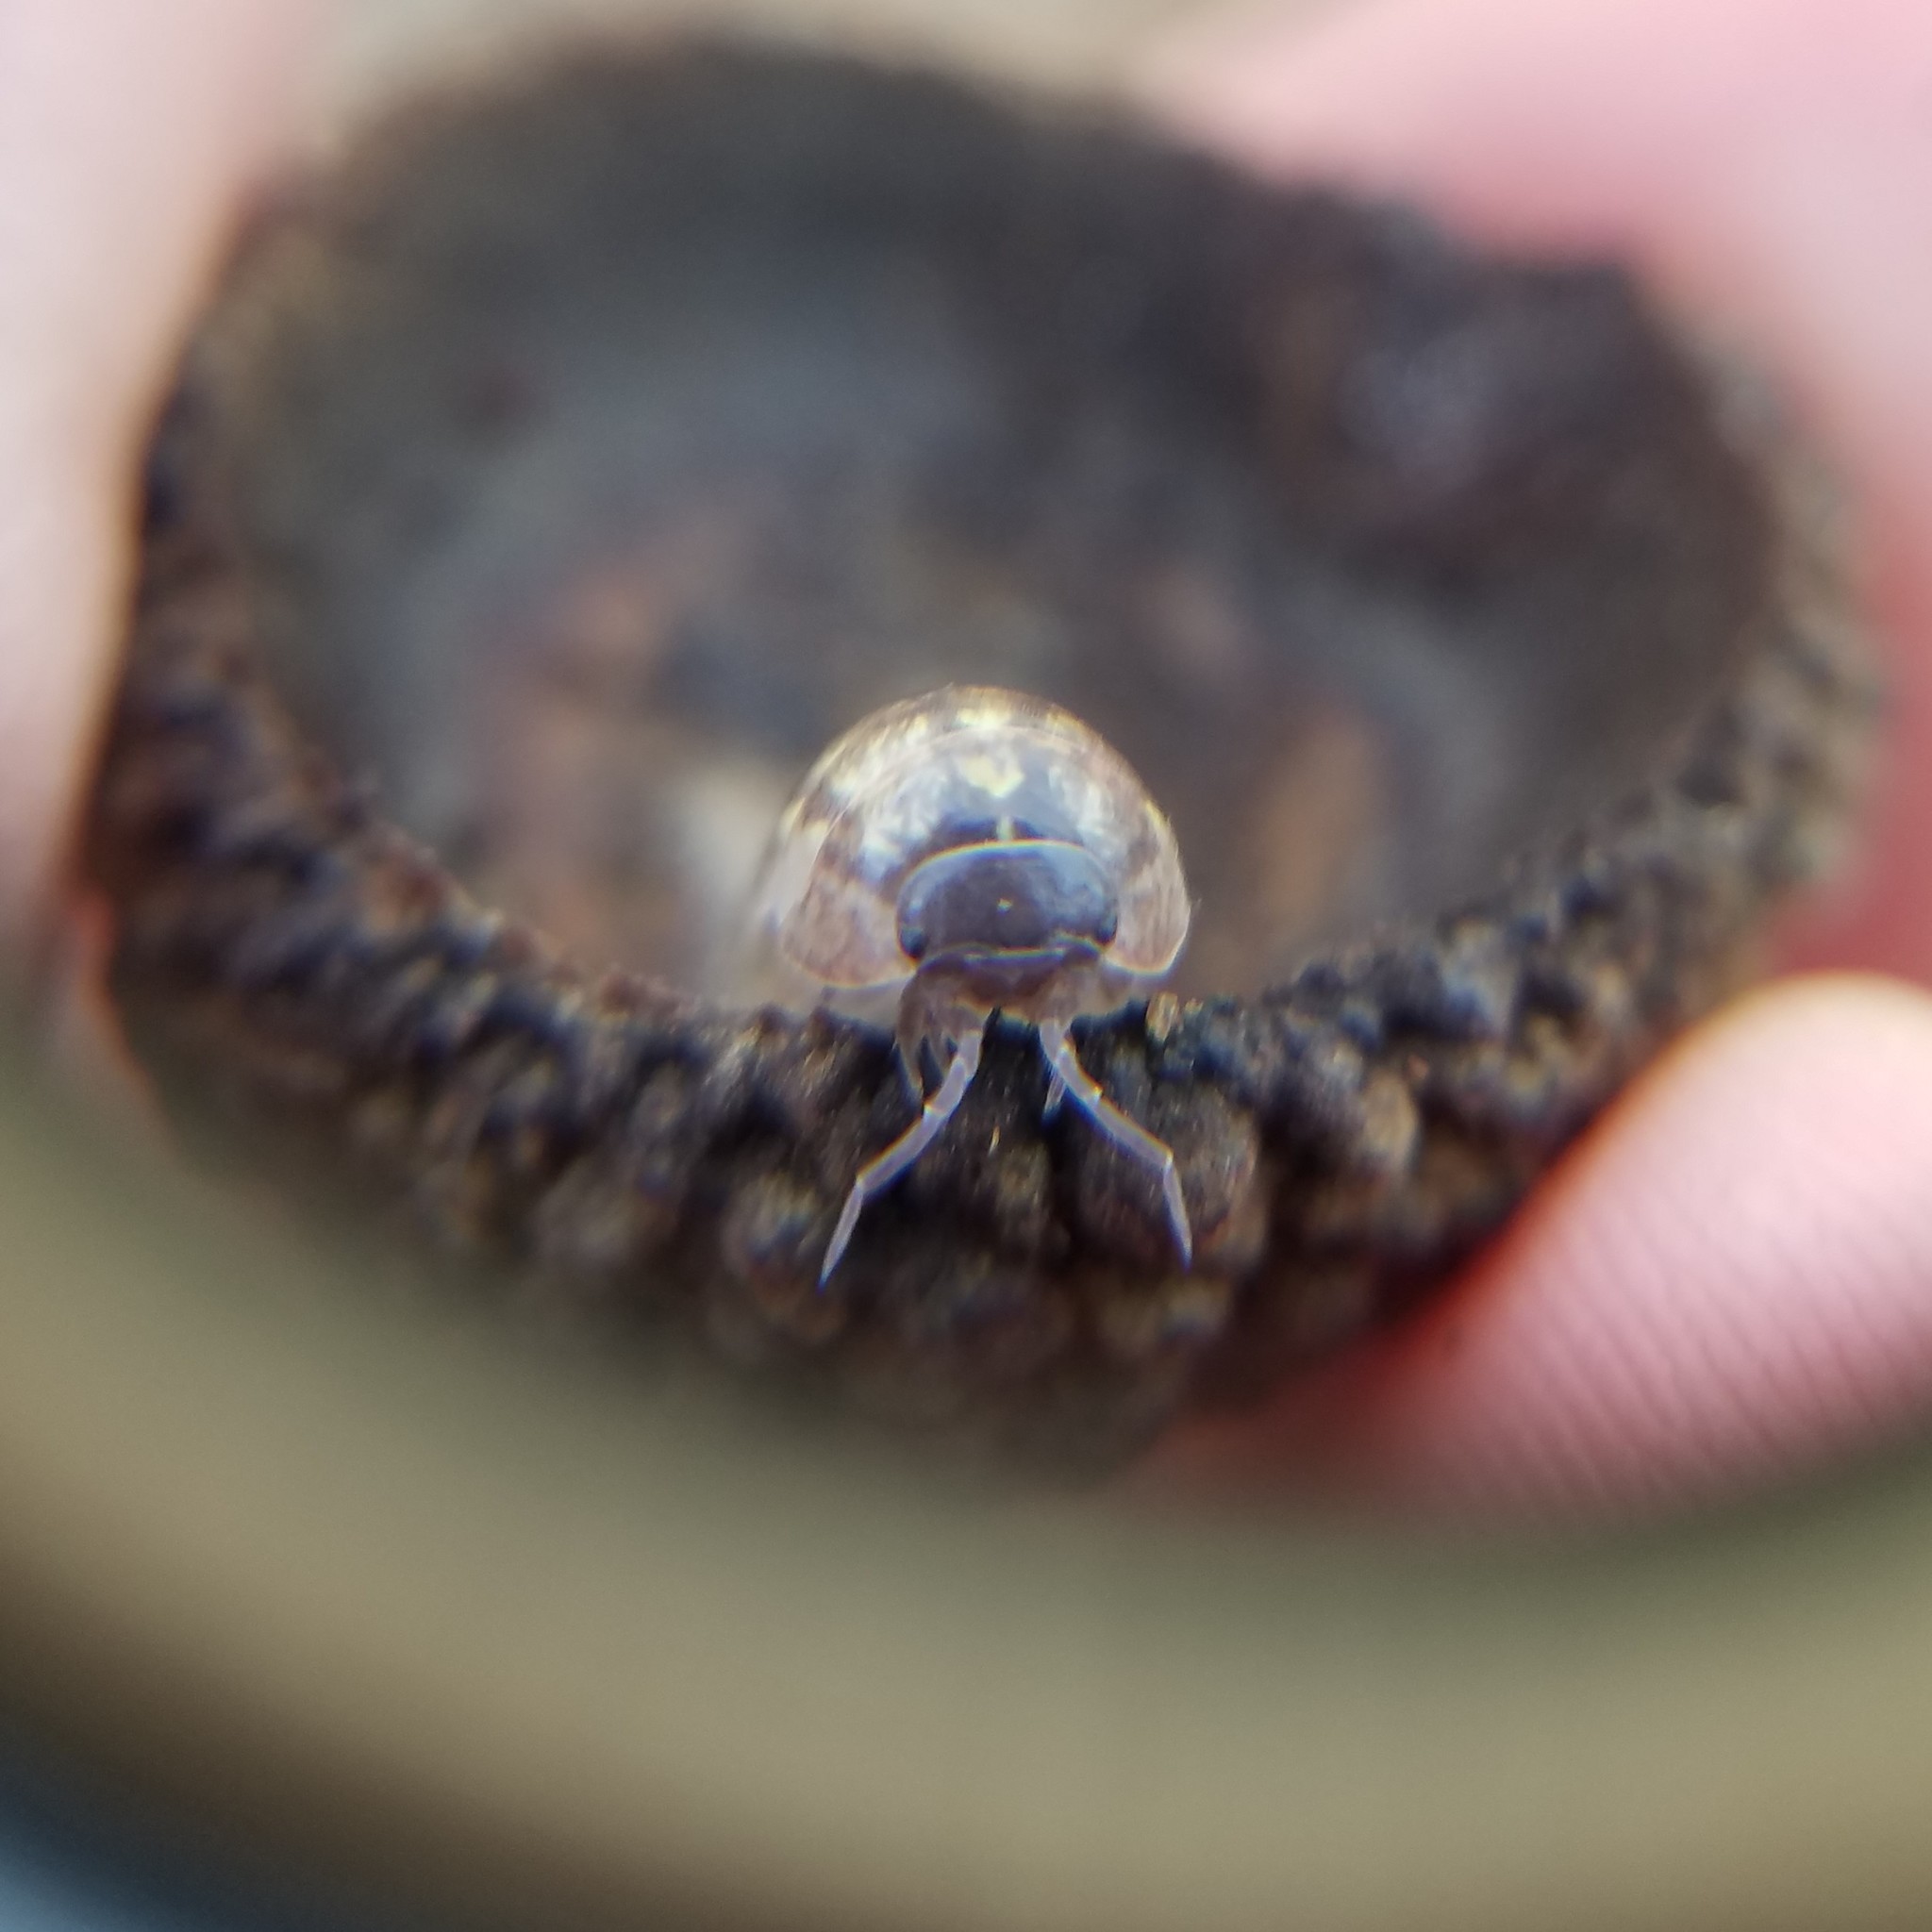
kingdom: Animalia
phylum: Arthropoda
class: Malacostraca
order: Isopoda
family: Armadillidiidae
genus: Armadillidium
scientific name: Armadillidium vulgare
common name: Common pill woodlouse
